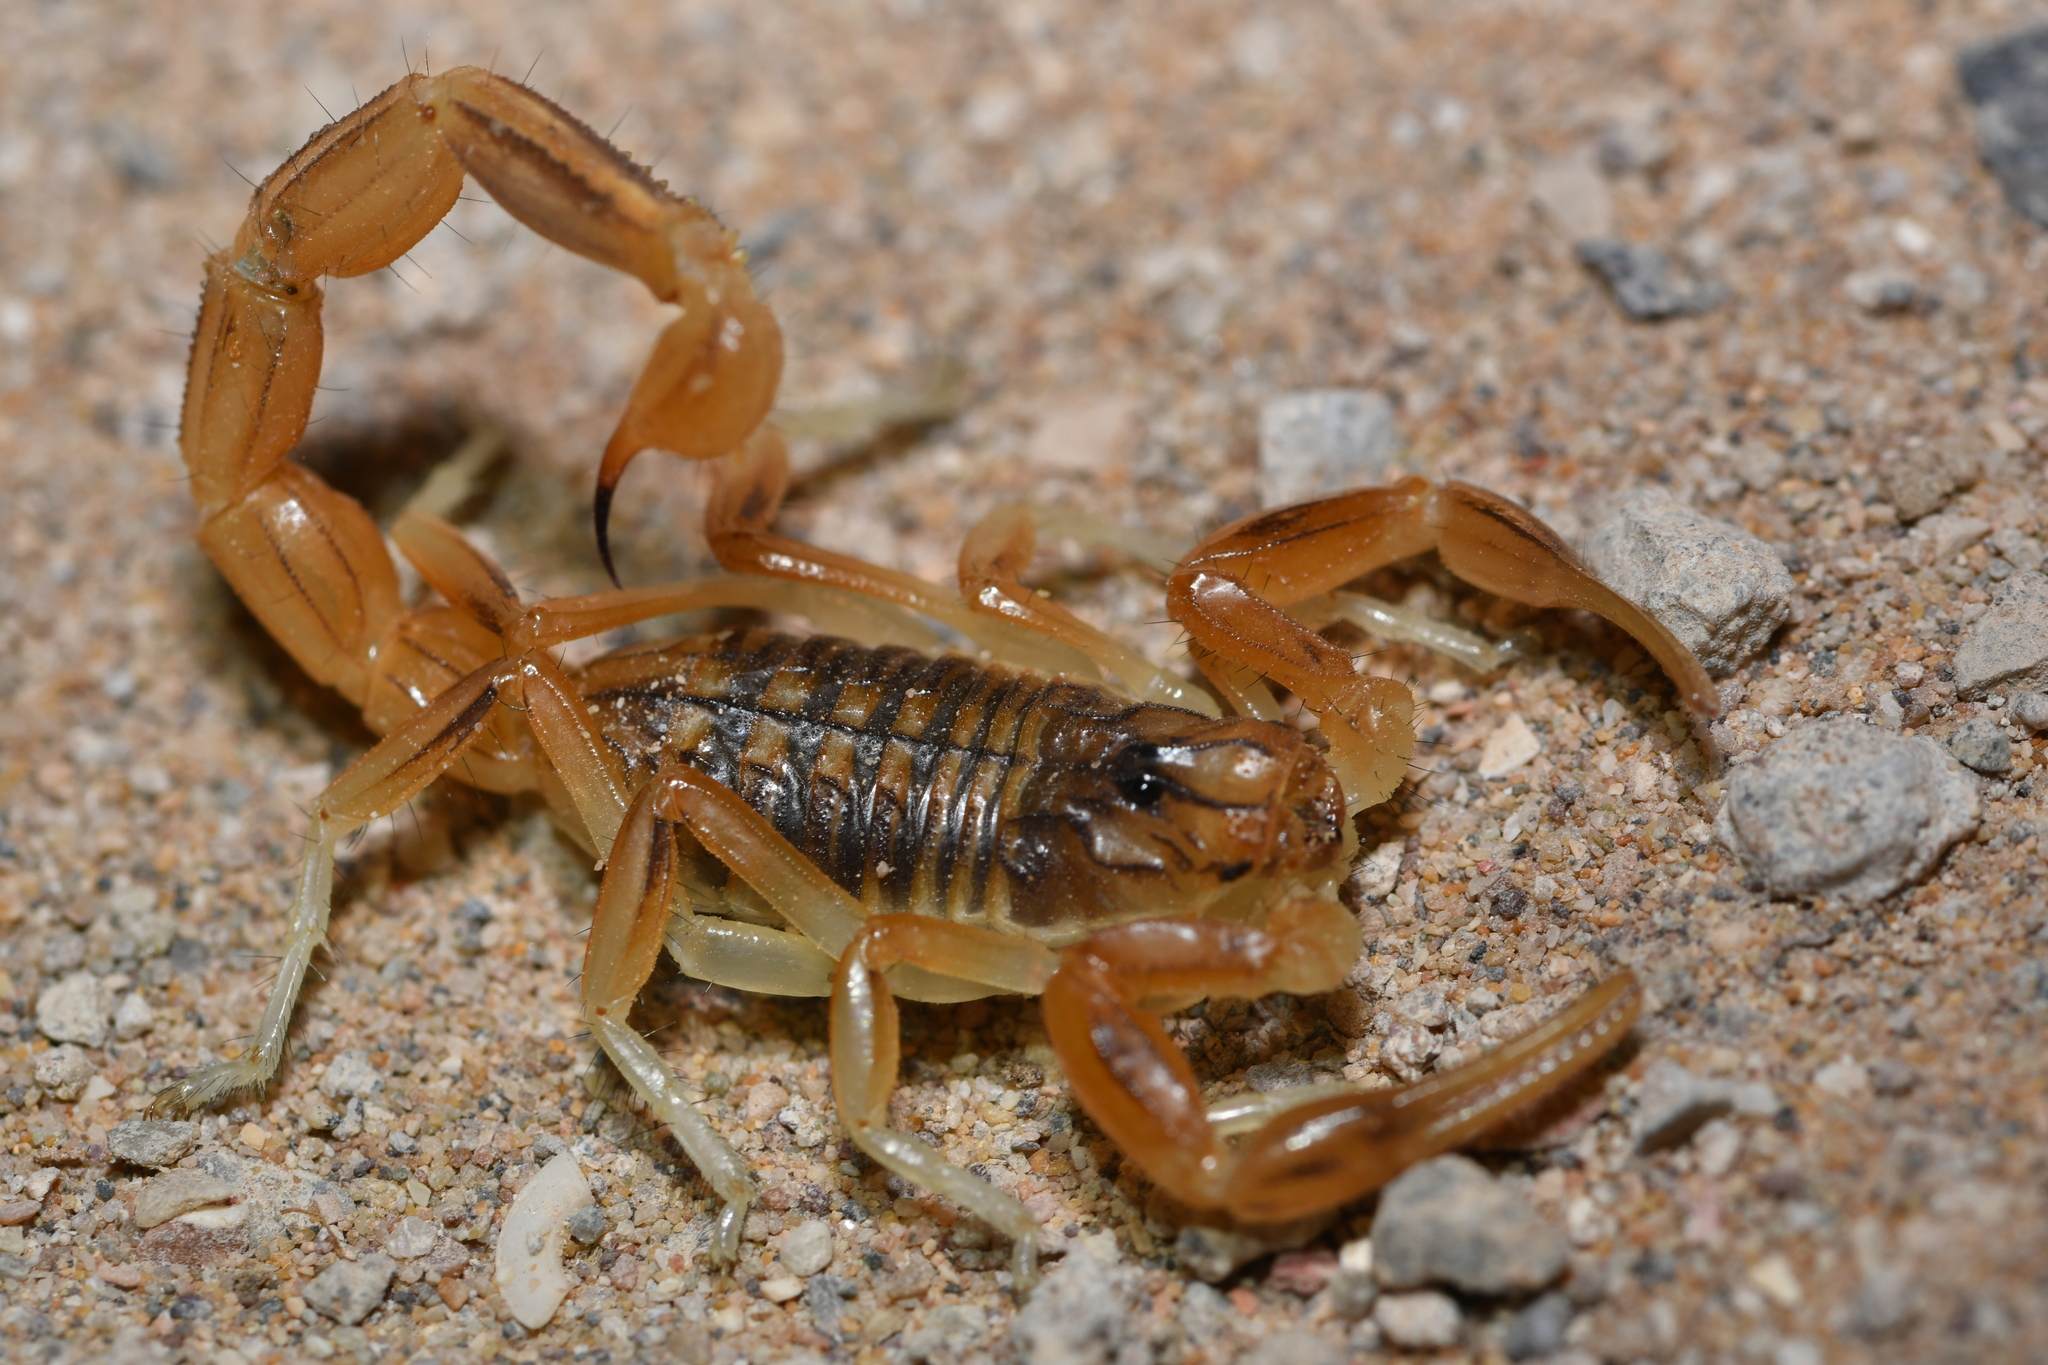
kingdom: Animalia
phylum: Arthropoda
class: Arachnida
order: Scorpiones
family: Buthidae
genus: Buthus
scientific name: Buthus atlantis
